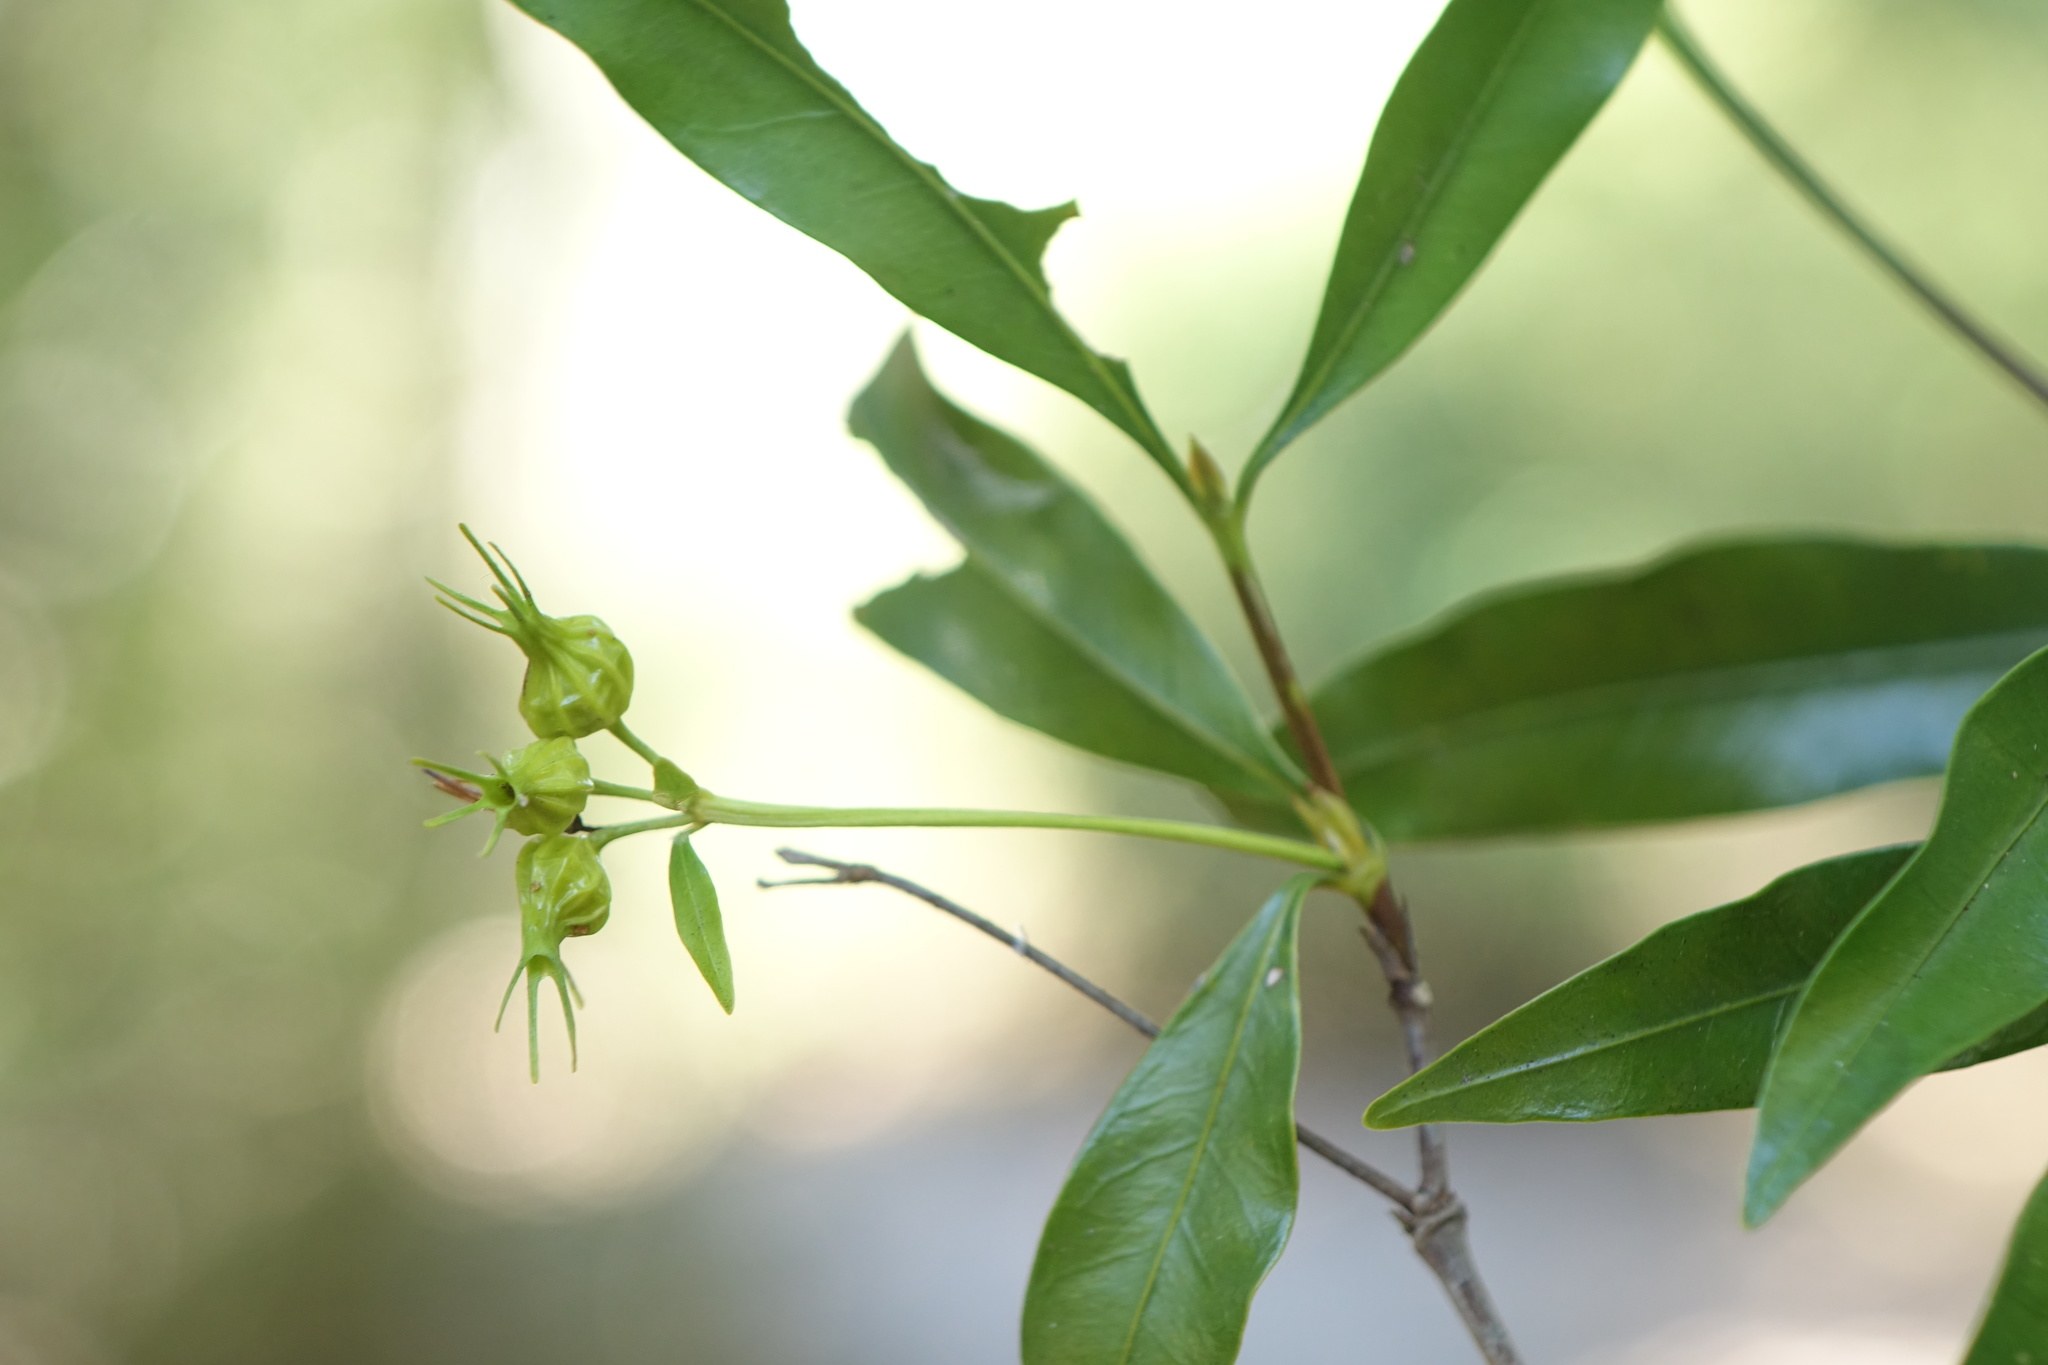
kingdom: Plantae
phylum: Tracheophyta
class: Magnoliopsida
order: Gentianales
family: Rubiaceae
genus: Homollea
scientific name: Homollea longiflora
